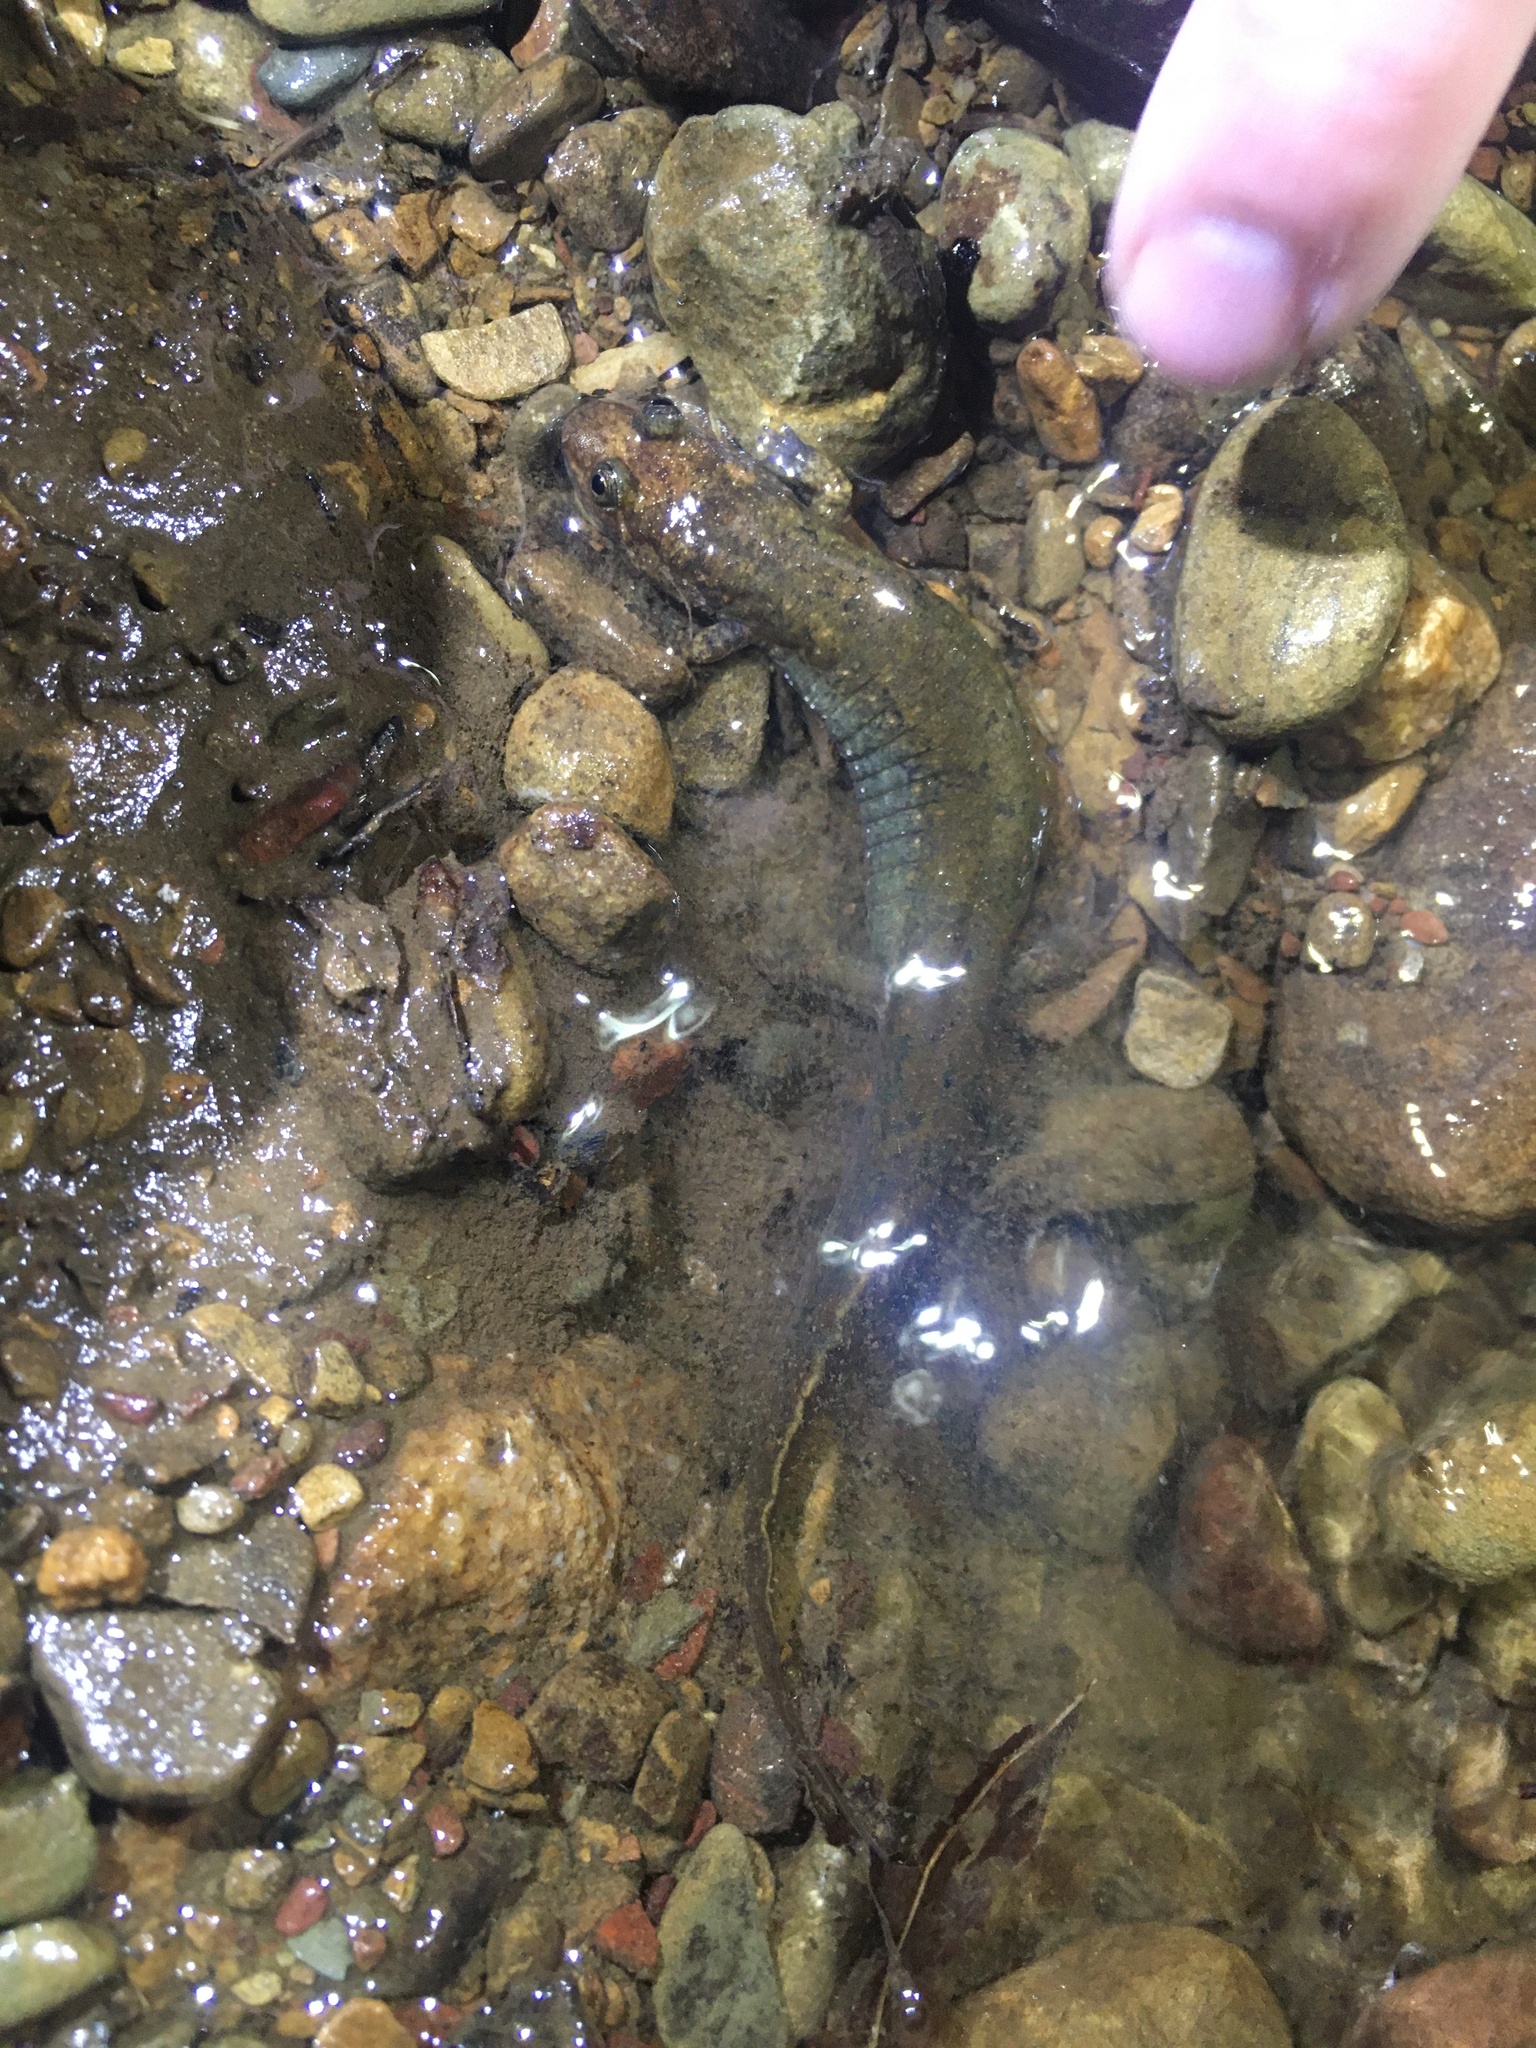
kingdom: Animalia
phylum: Chordata
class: Amphibia
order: Caudata
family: Plethodontidae
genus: Desmognathus
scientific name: Desmognathus
